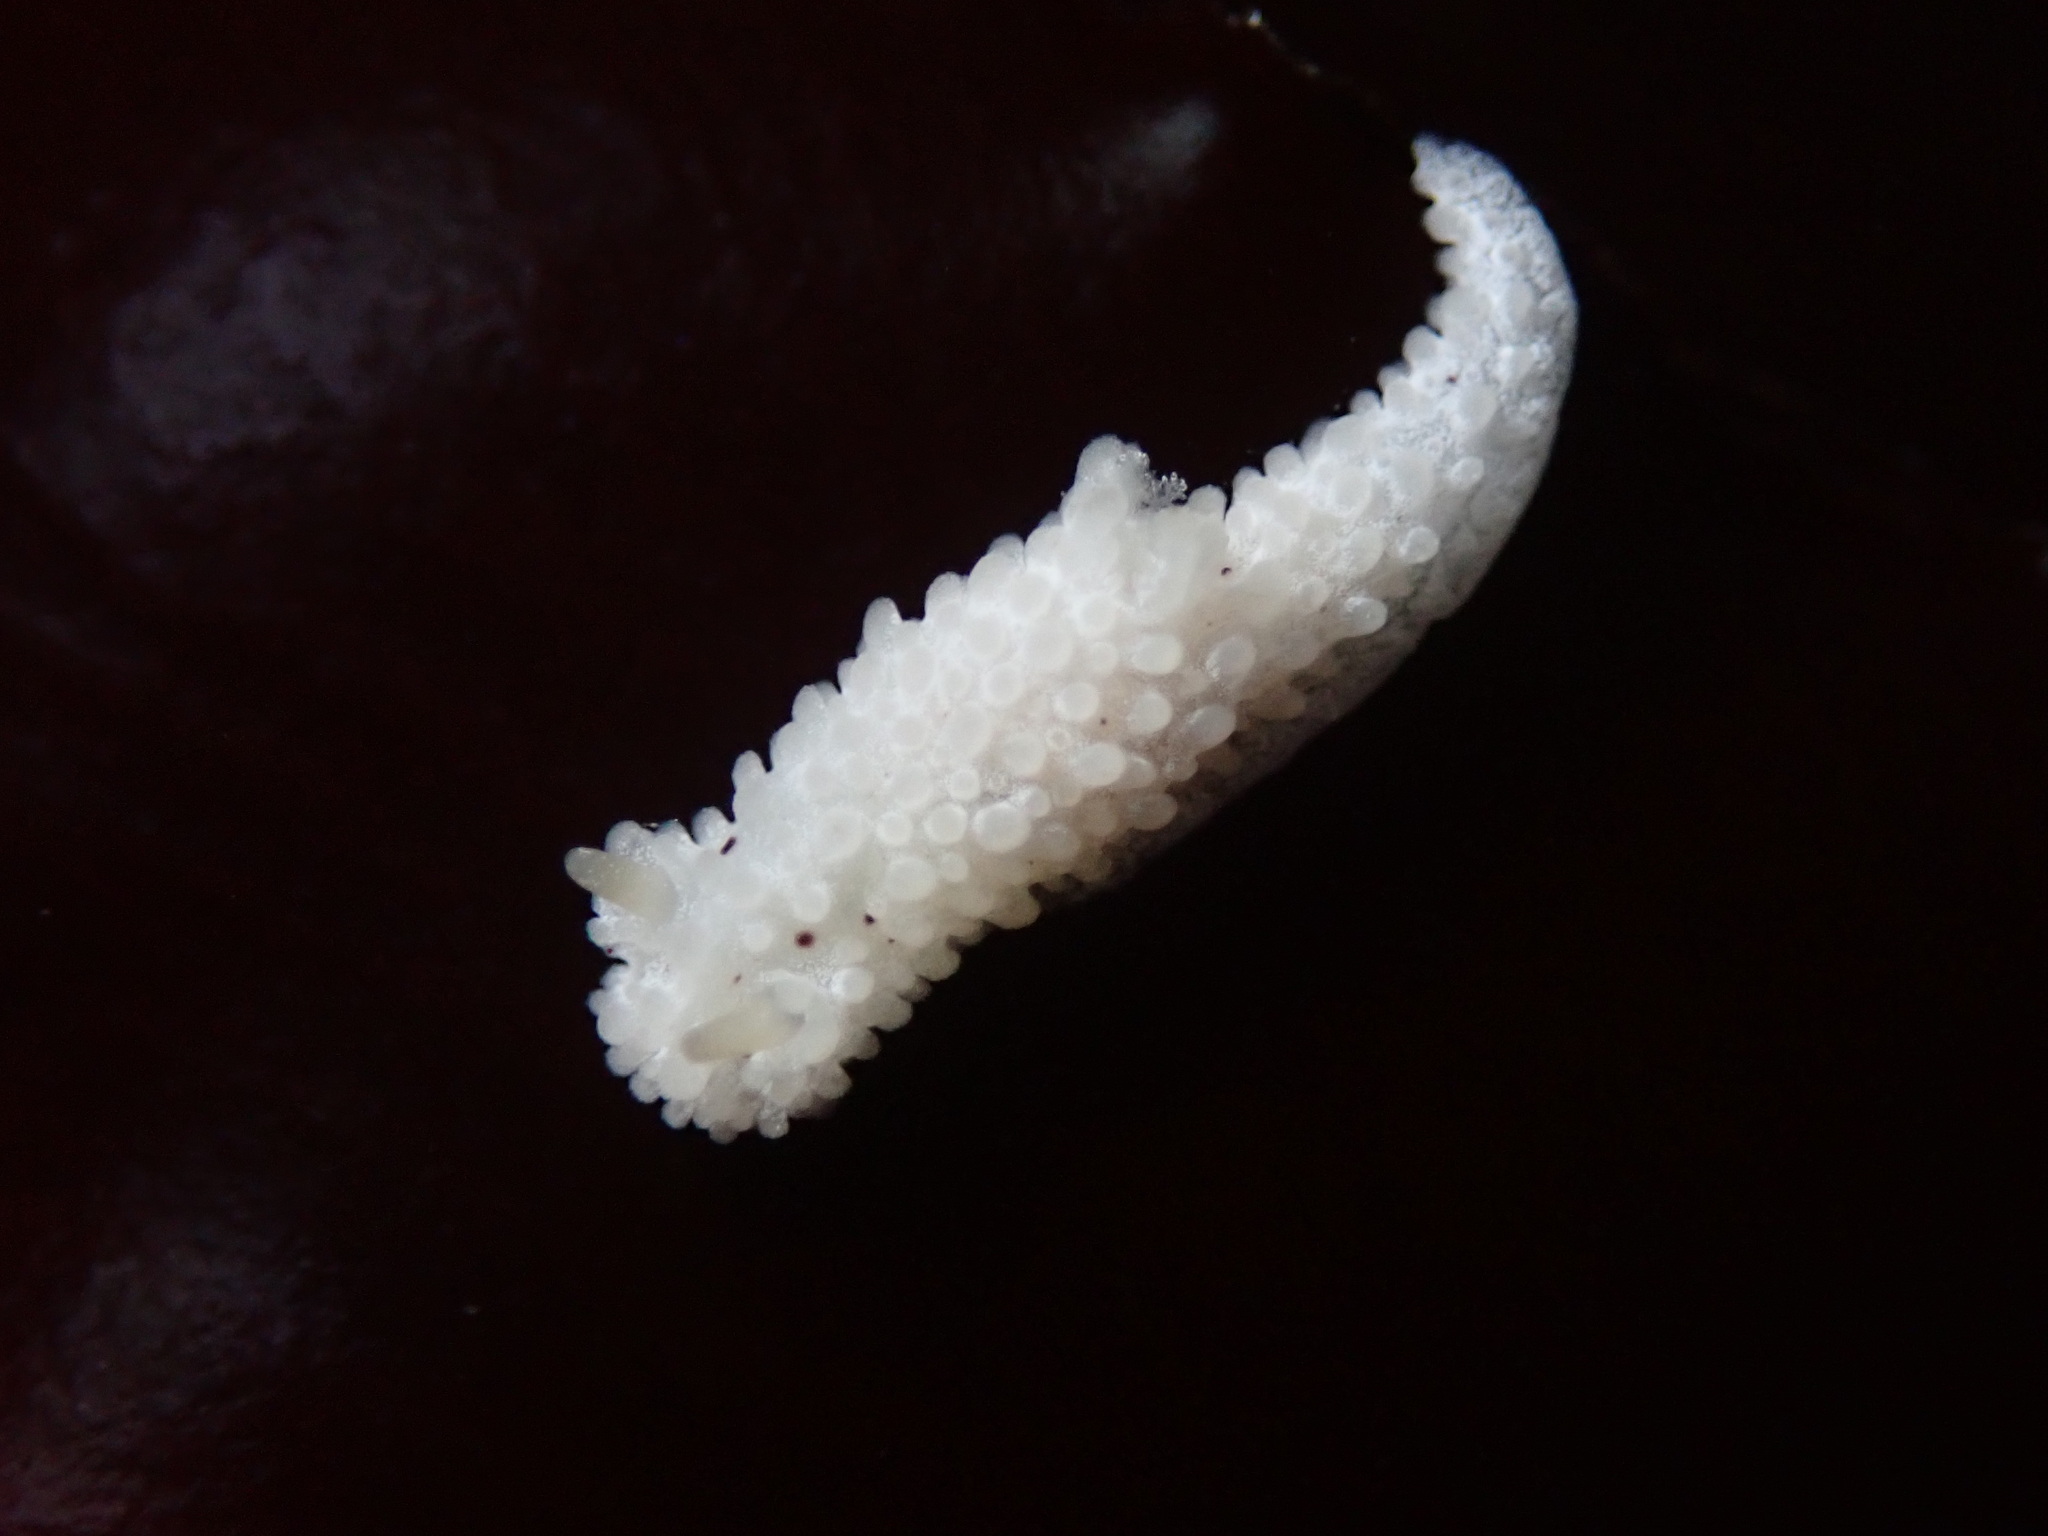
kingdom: Animalia
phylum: Mollusca
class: Gastropoda
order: Nudibranchia
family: Aegiridae
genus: Aegires
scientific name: Aegires albopunctatus
